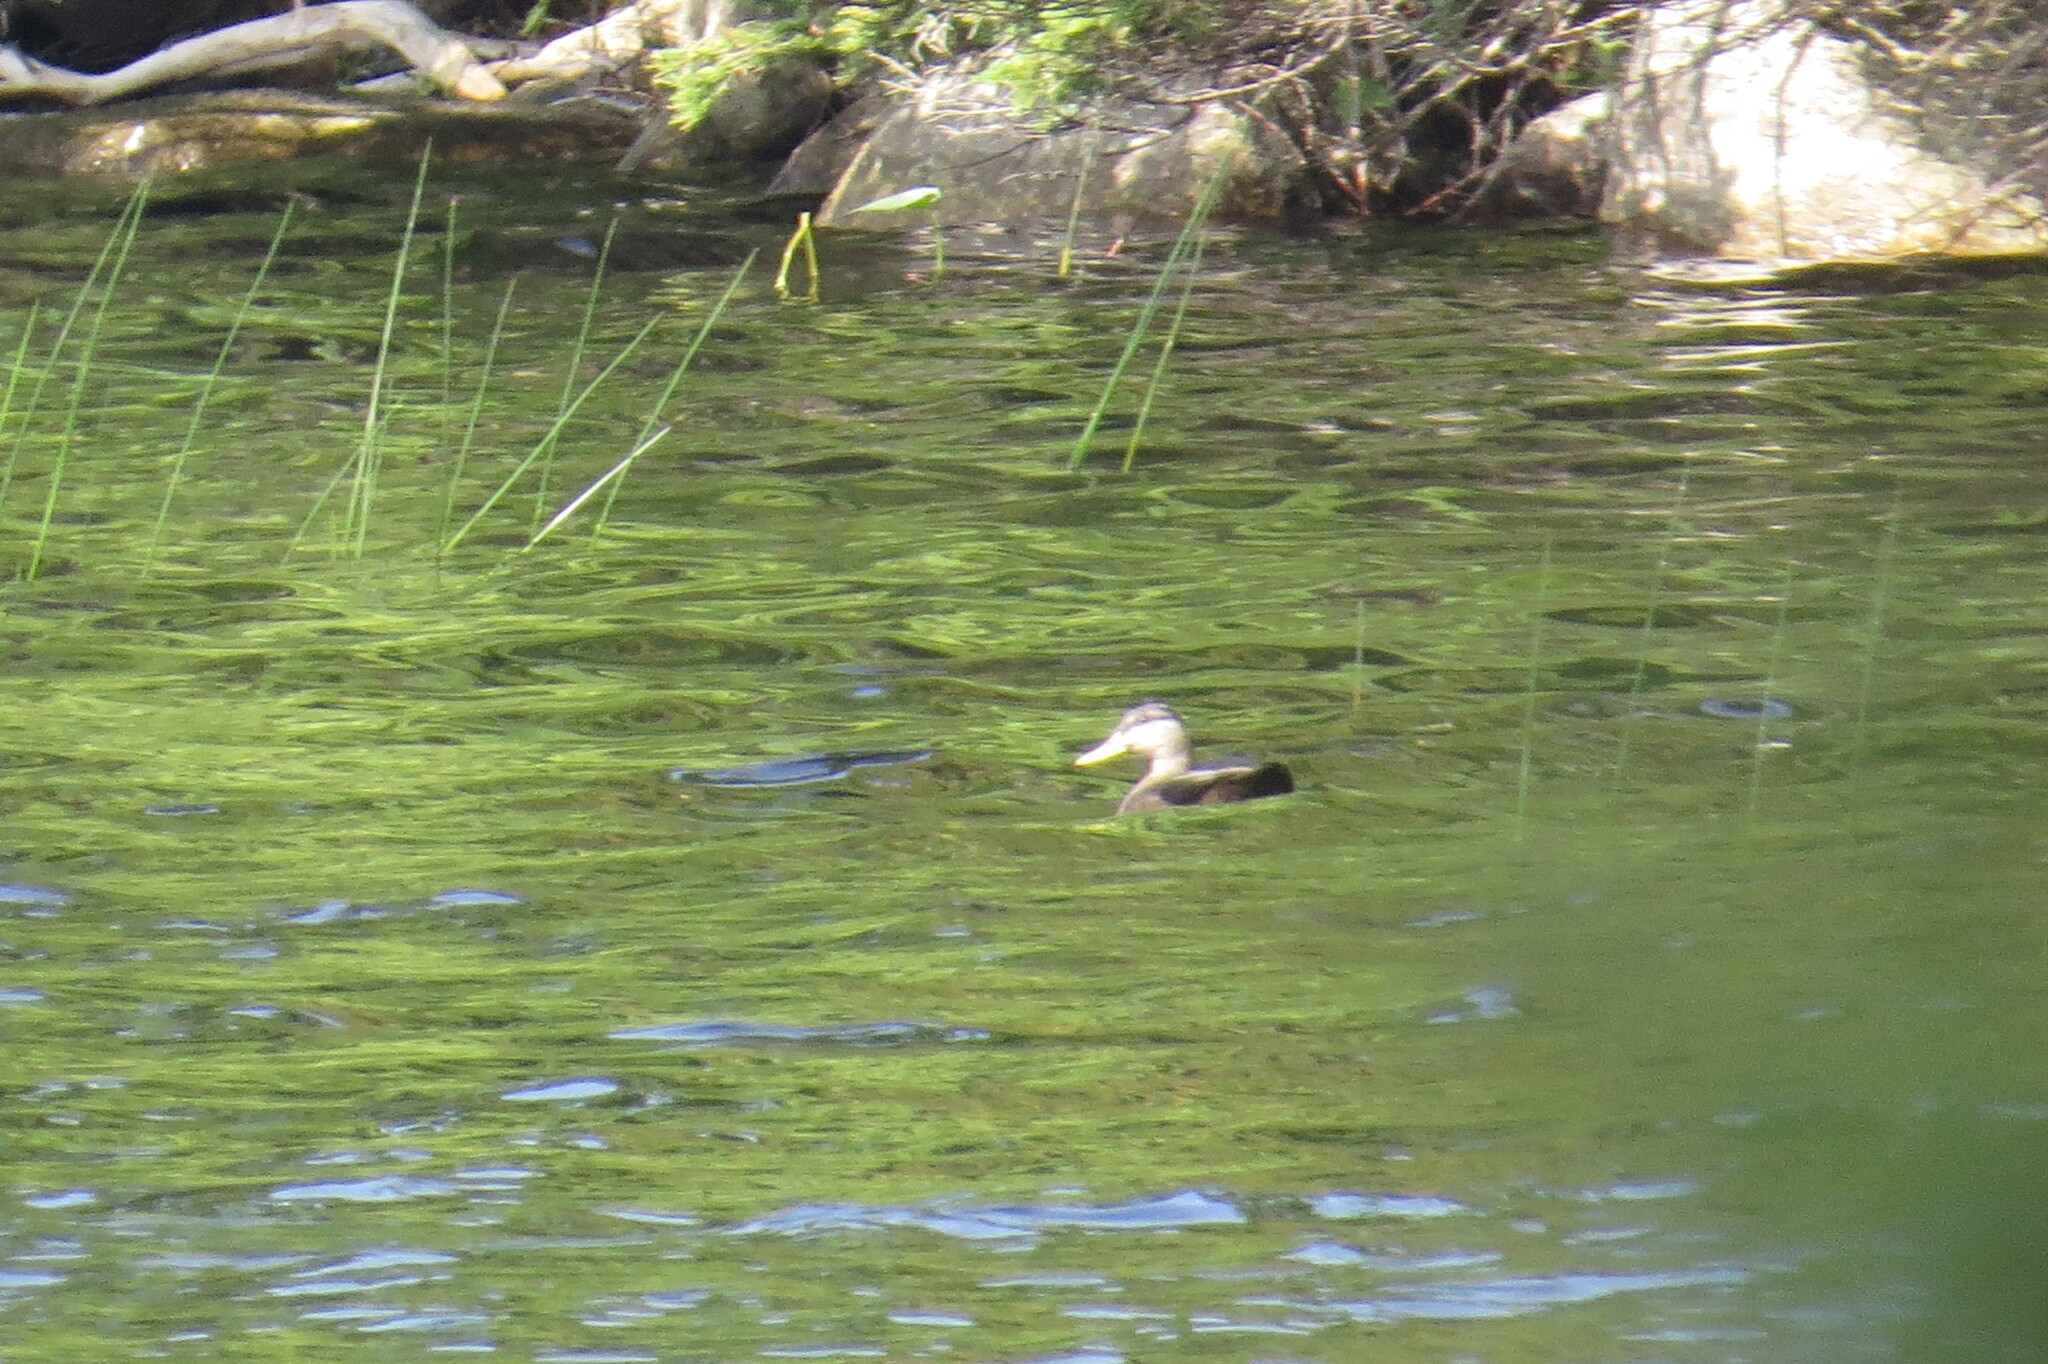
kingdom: Animalia
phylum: Chordata
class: Aves
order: Anseriformes
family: Anatidae
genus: Anas
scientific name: Anas rubripes
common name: American black duck
